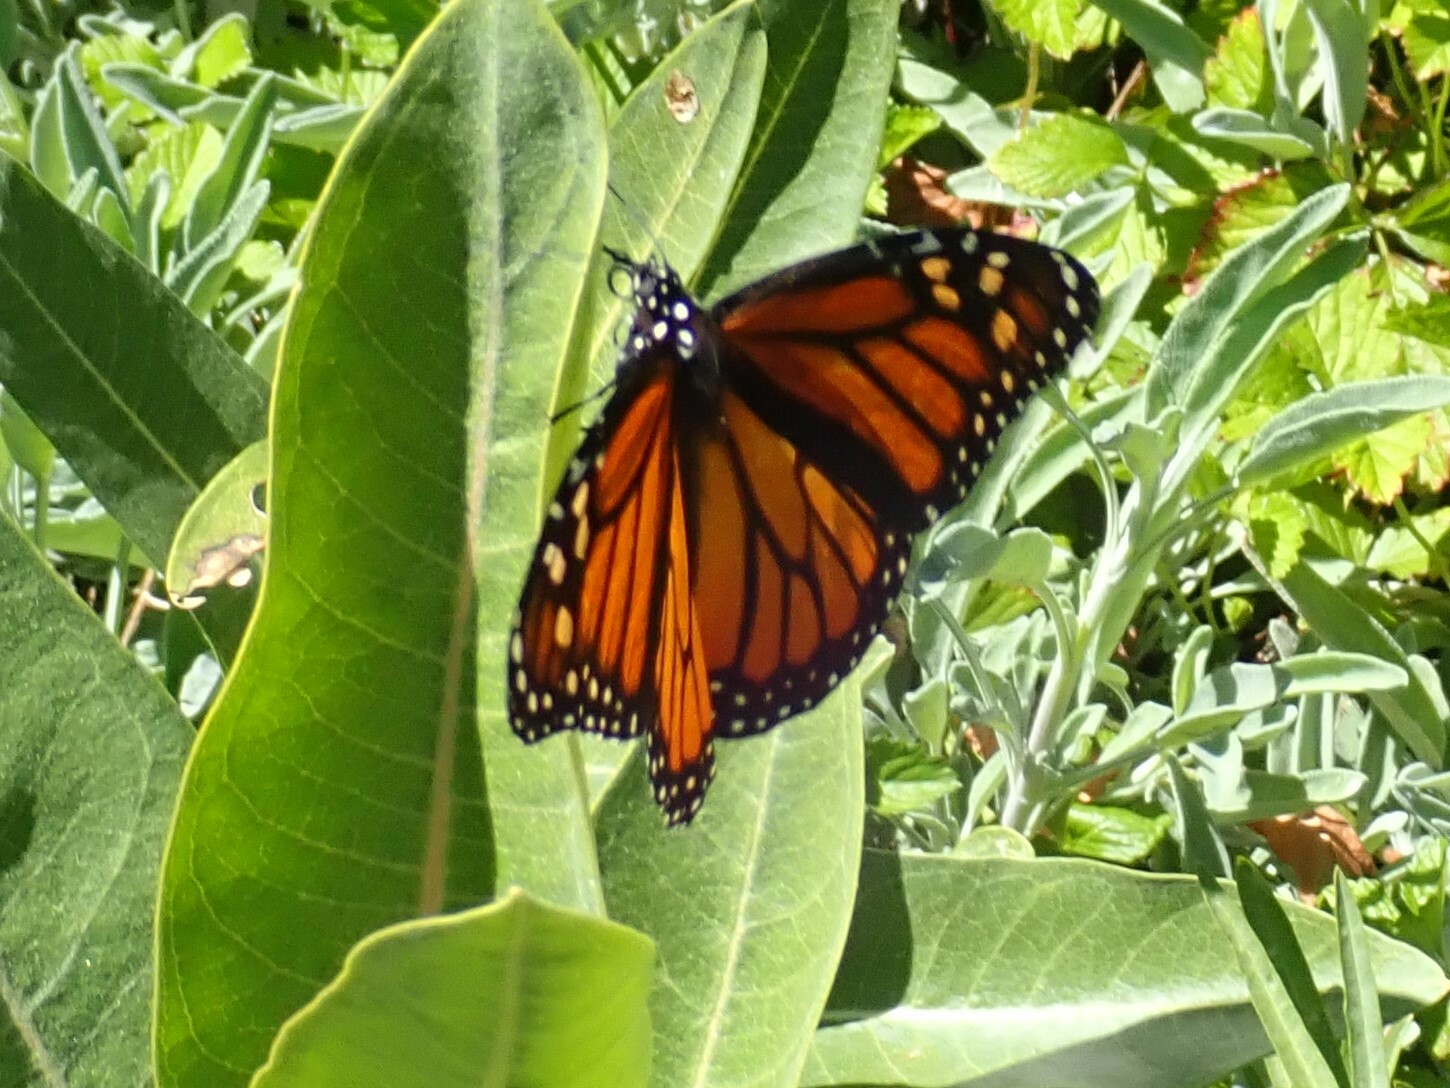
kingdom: Animalia
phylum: Arthropoda
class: Insecta
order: Lepidoptera
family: Nymphalidae
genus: Danaus
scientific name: Danaus plexippus
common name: Monarch
